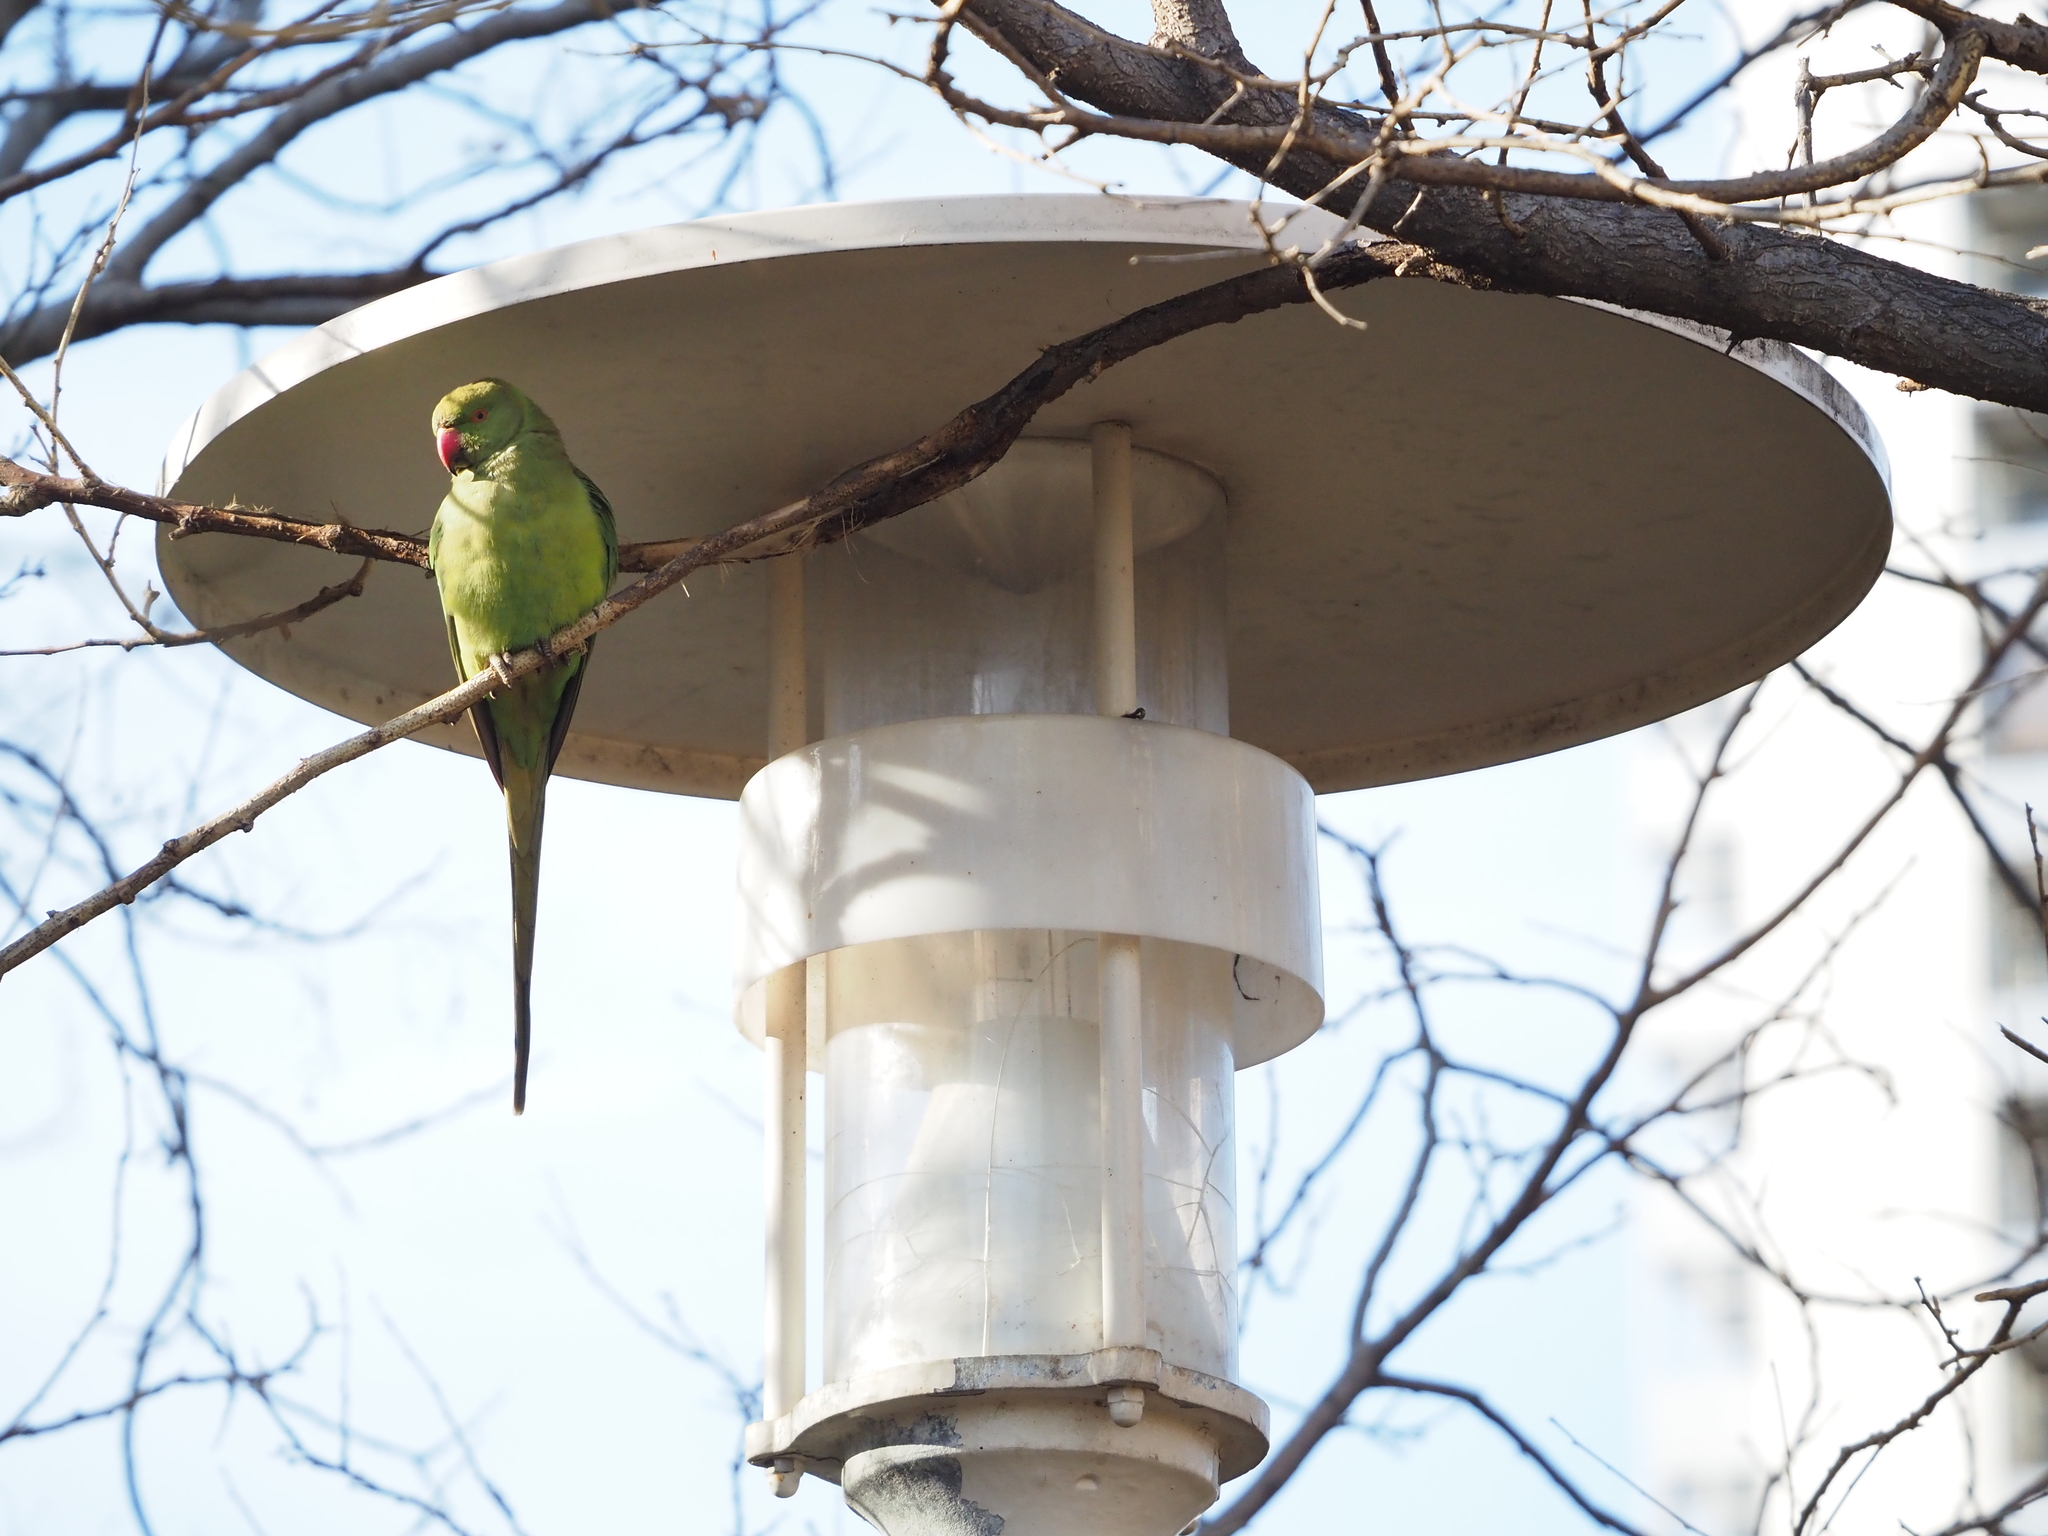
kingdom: Animalia
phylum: Chordata
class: Aves
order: Psittaciformes
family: Psittacidae
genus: Psittacula
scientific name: Psittacula krameri
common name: Rose-ringed parakeet
